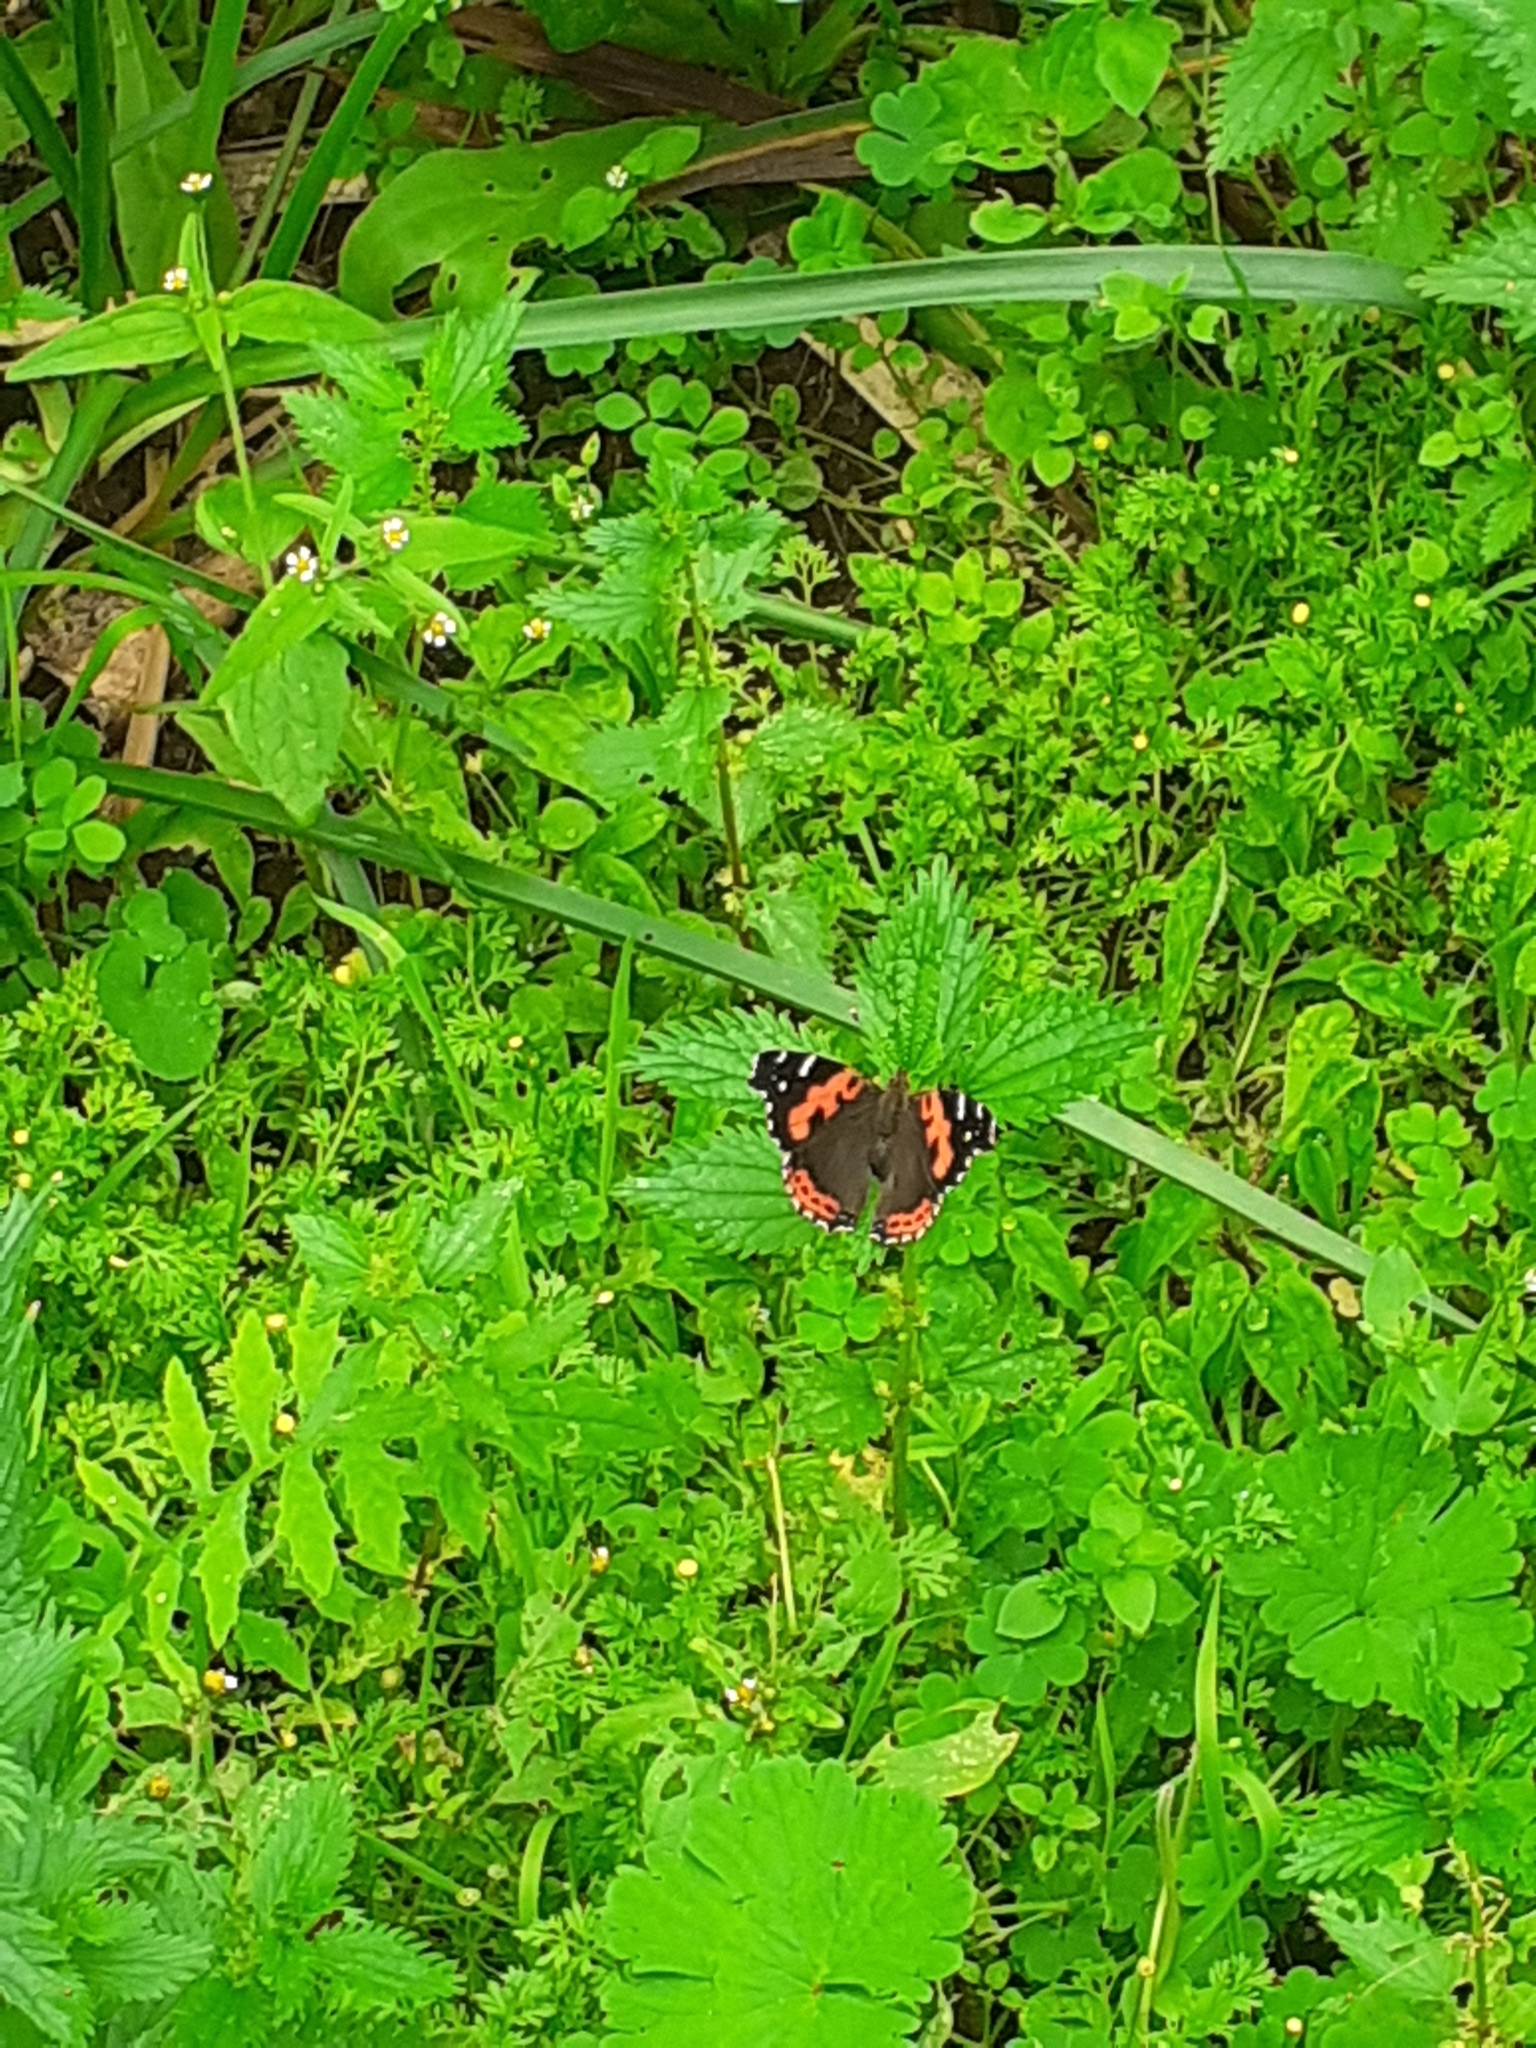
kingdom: Animalia
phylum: Arthropoda
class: Insecta
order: Lepidoptera
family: Nymphalidae
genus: Vanessa
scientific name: Vanessa vulcania
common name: Canary red admiral
